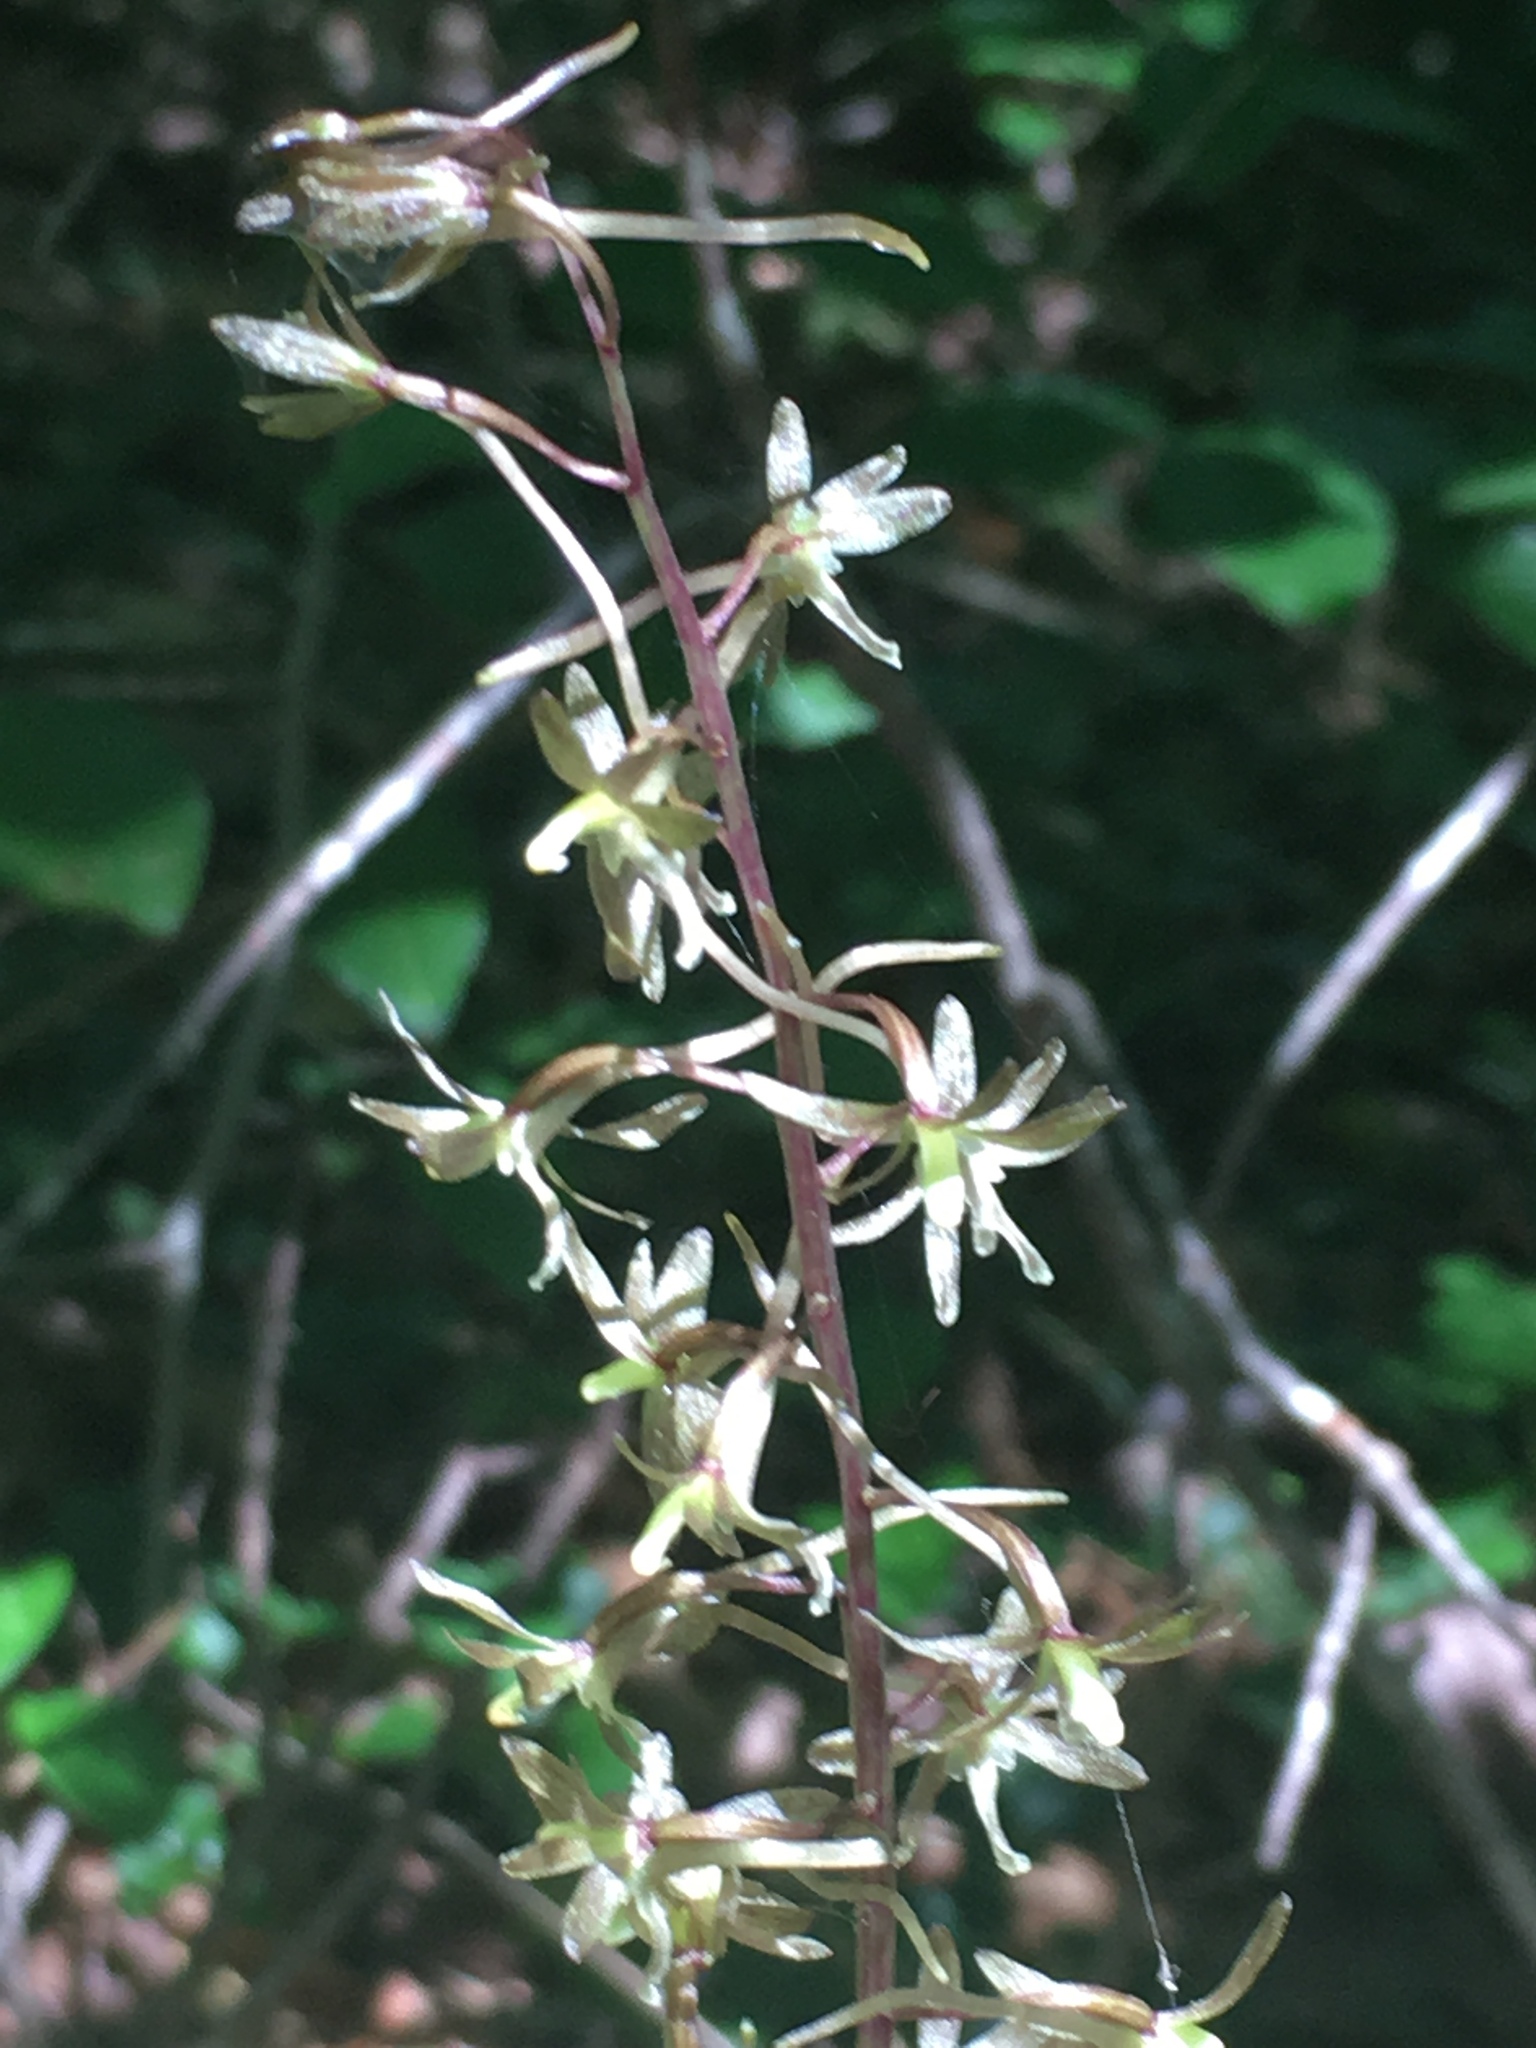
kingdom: Plantae
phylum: Tracheophyta
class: Liliopsida
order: Asparagales
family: Orchidaceae
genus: Tipularia
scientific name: Tipularia discolor
